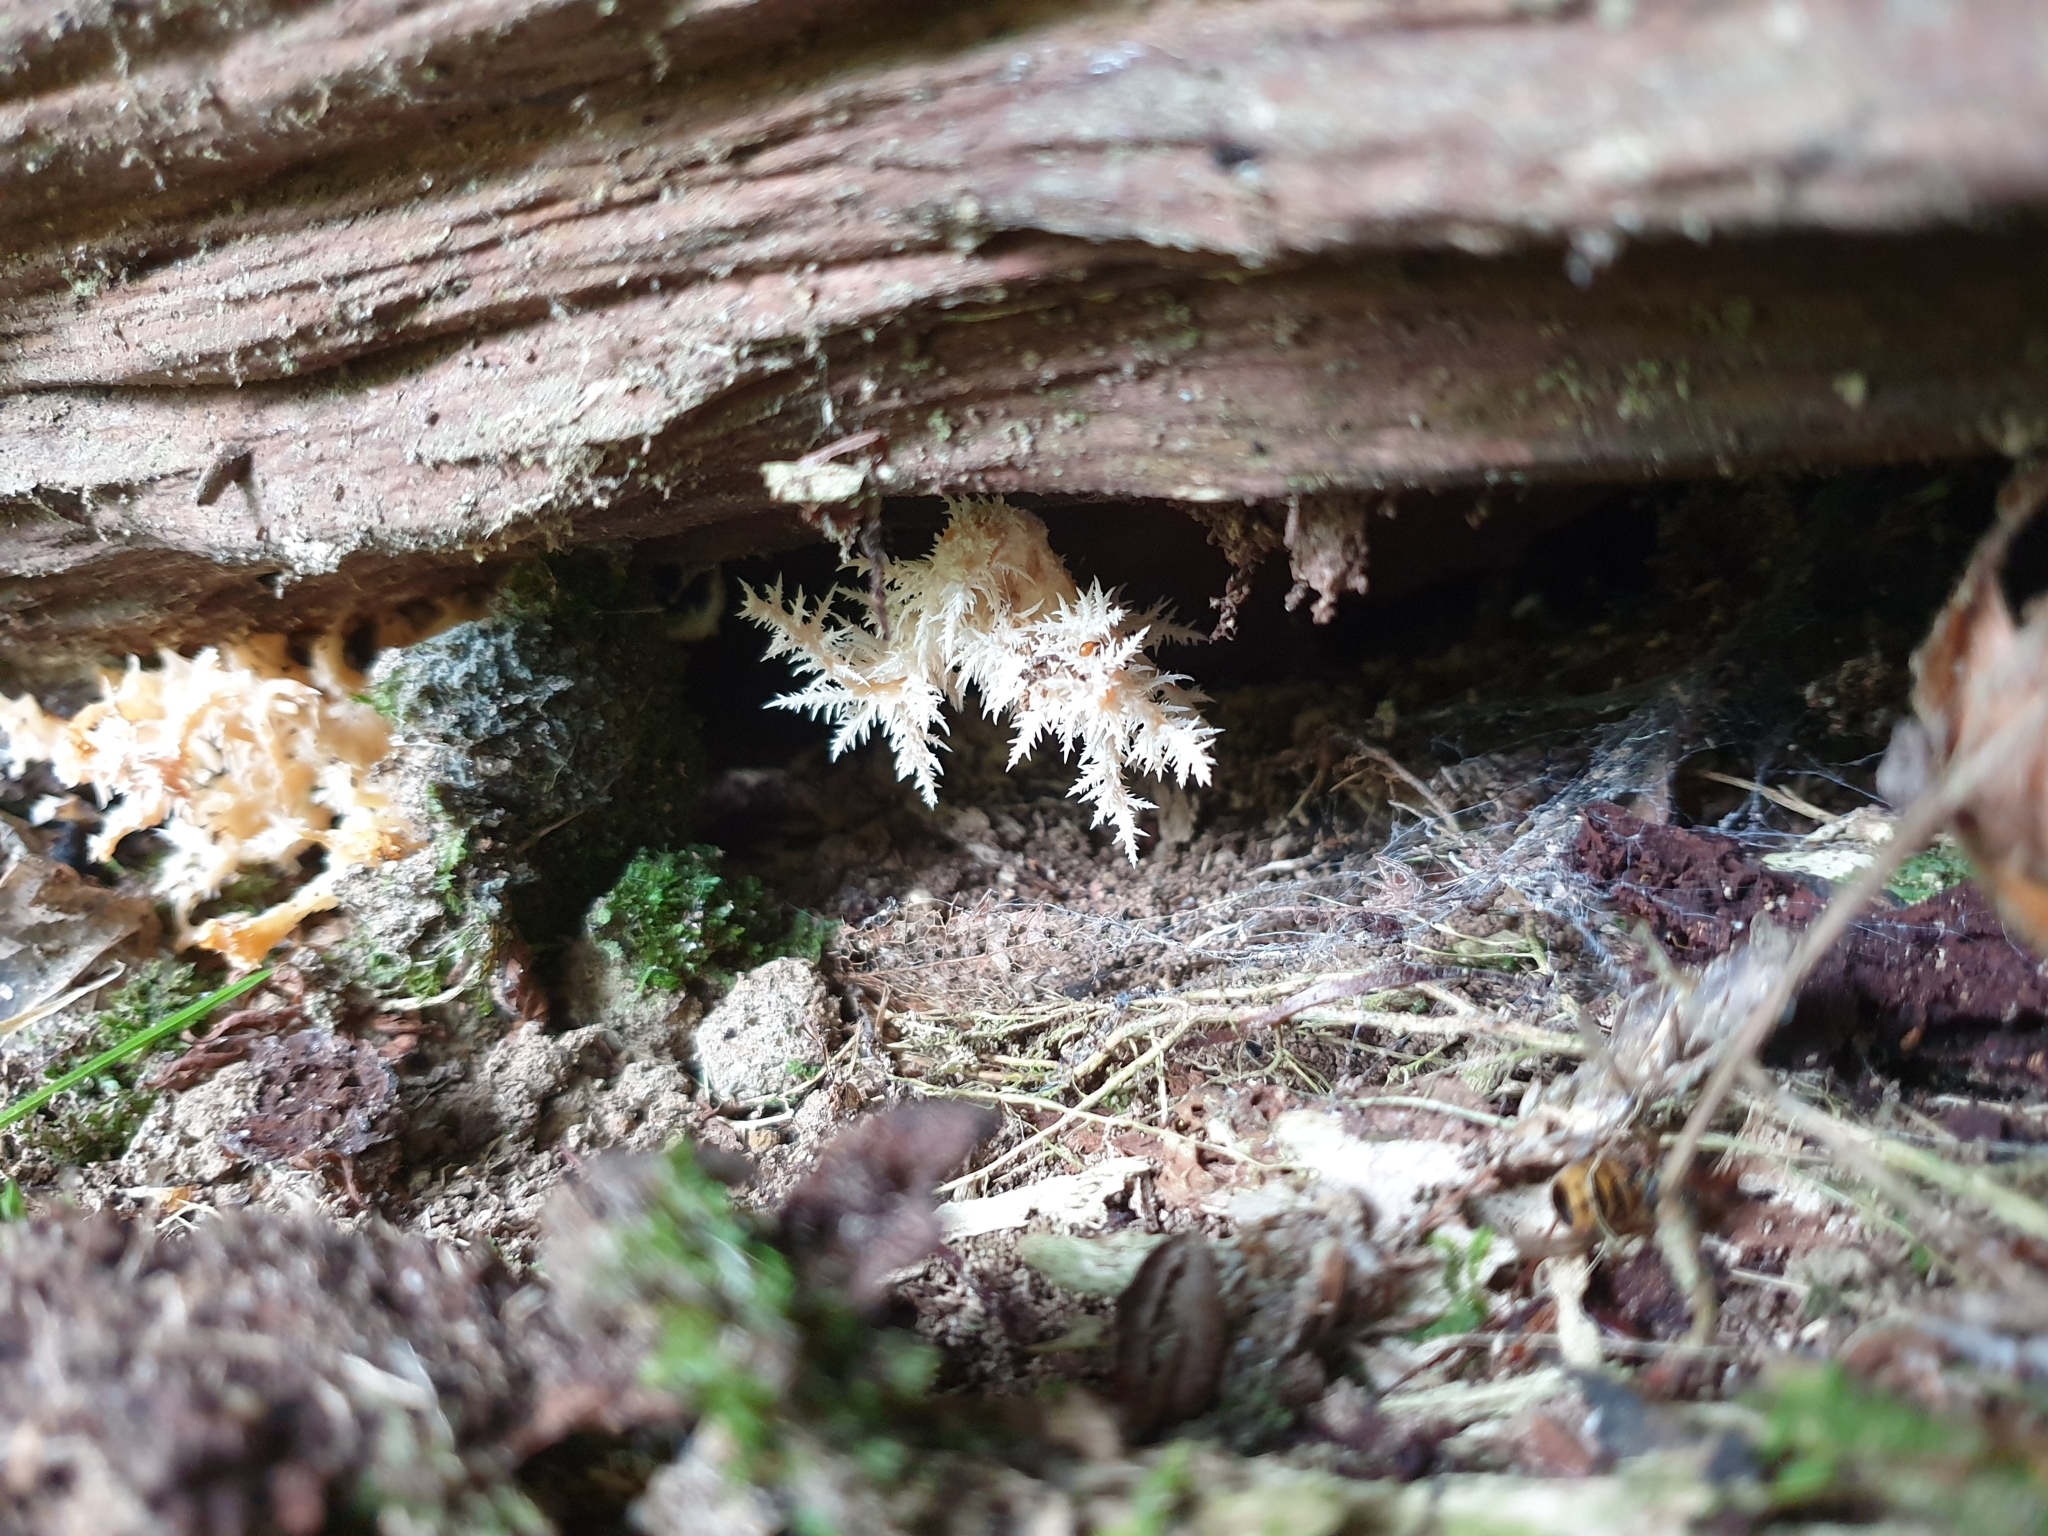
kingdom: Fungi
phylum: Basidiomycota
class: Agaricomycetes
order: Russulales
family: Hericiaceae
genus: Hericium
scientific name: Hericium novae-zealandiae
